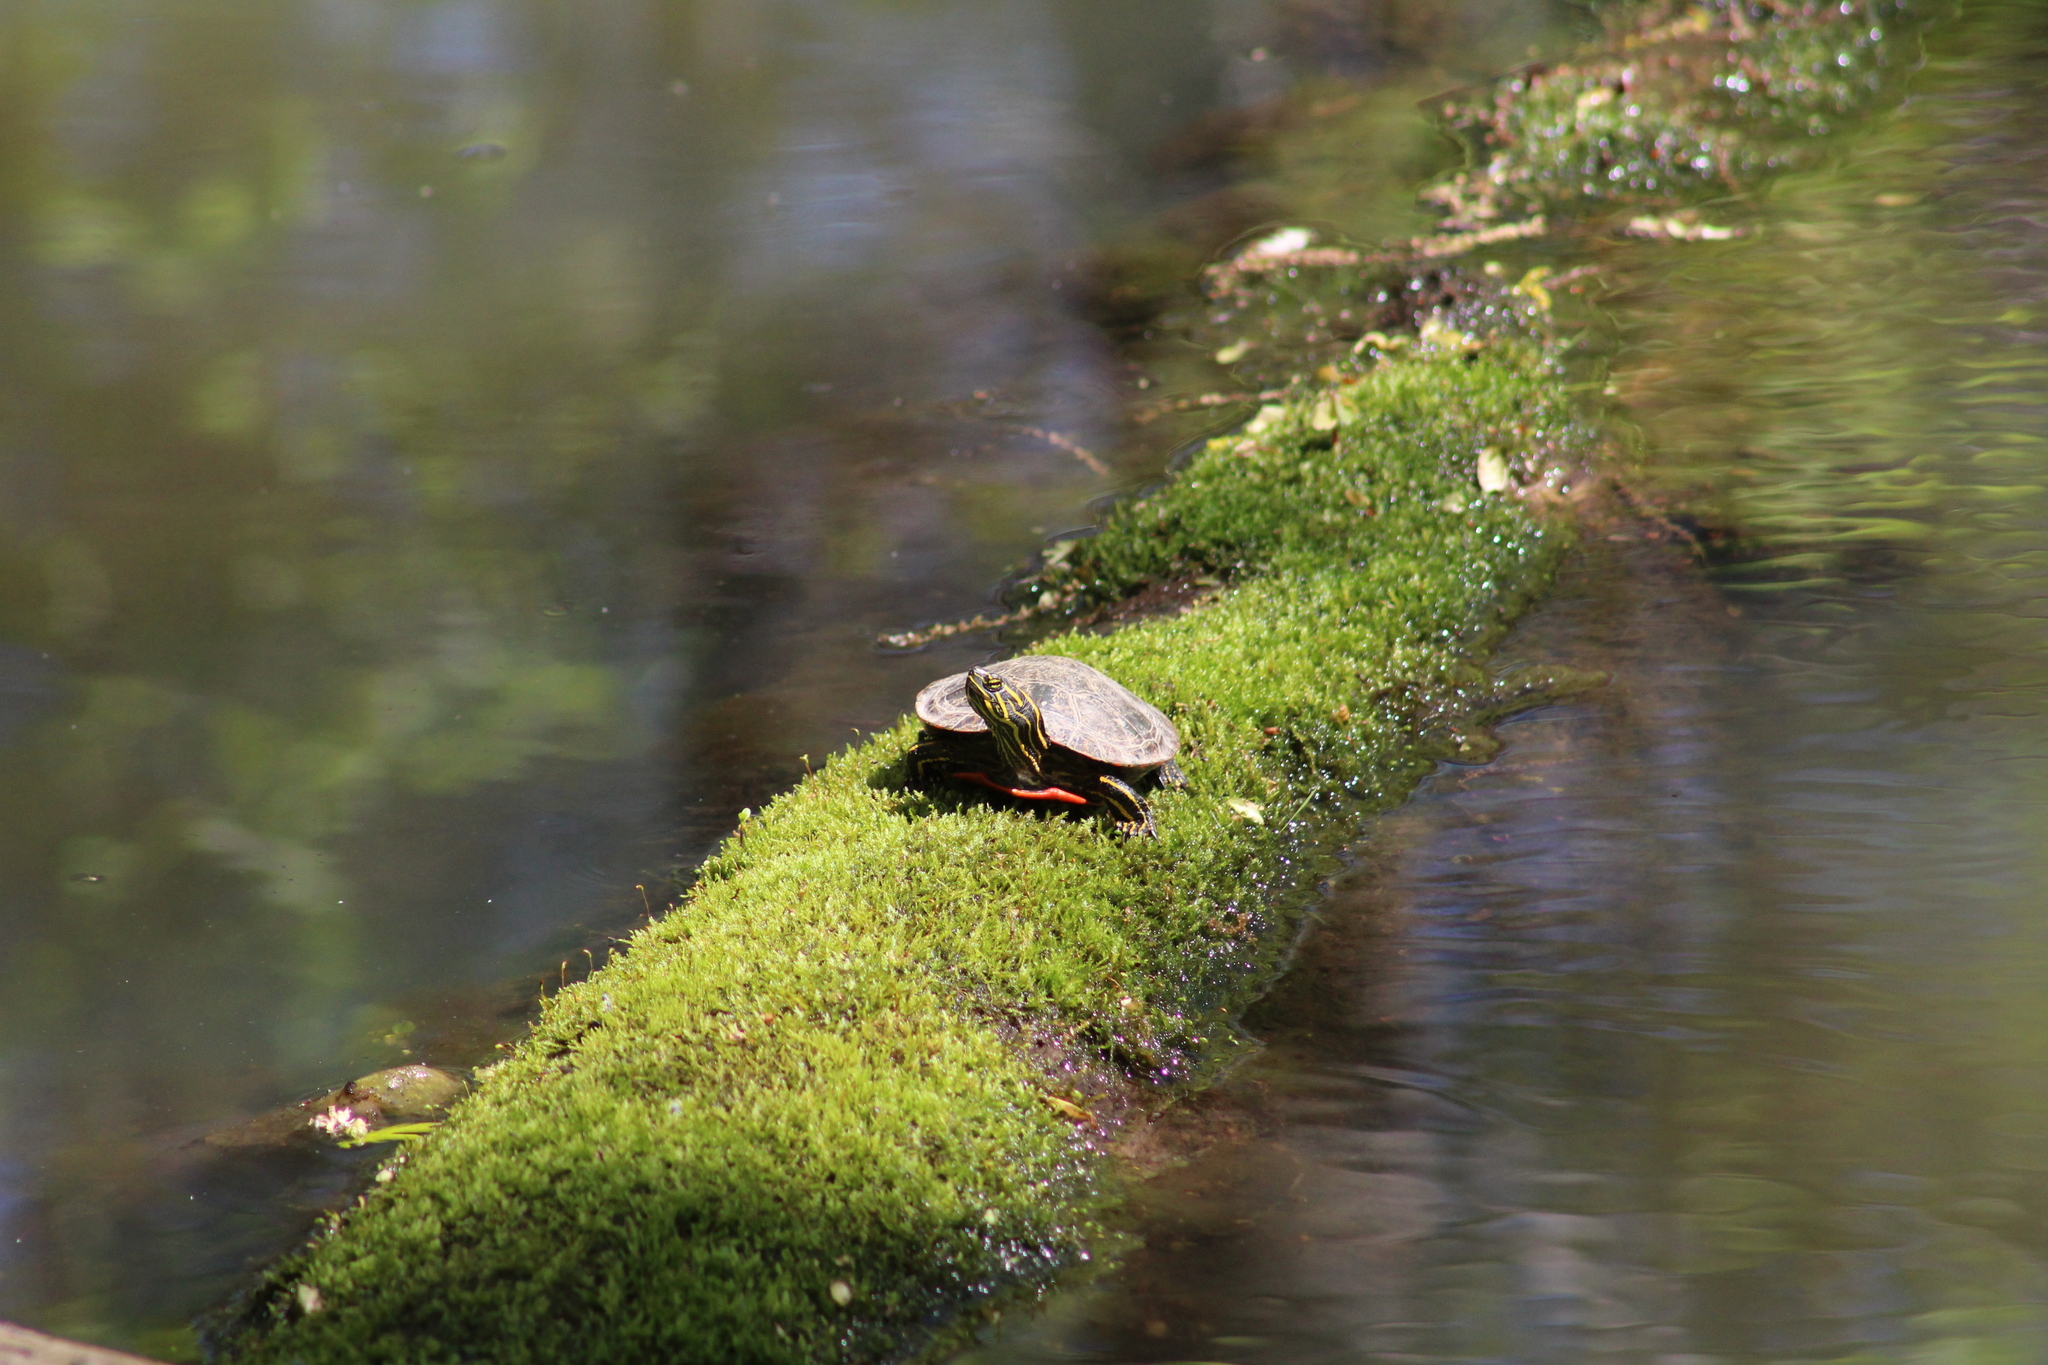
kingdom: Animalia
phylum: Chordata
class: Testudines
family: Emydidae
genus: Chrysemys
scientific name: Chrysemys picta
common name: Painted turtle
